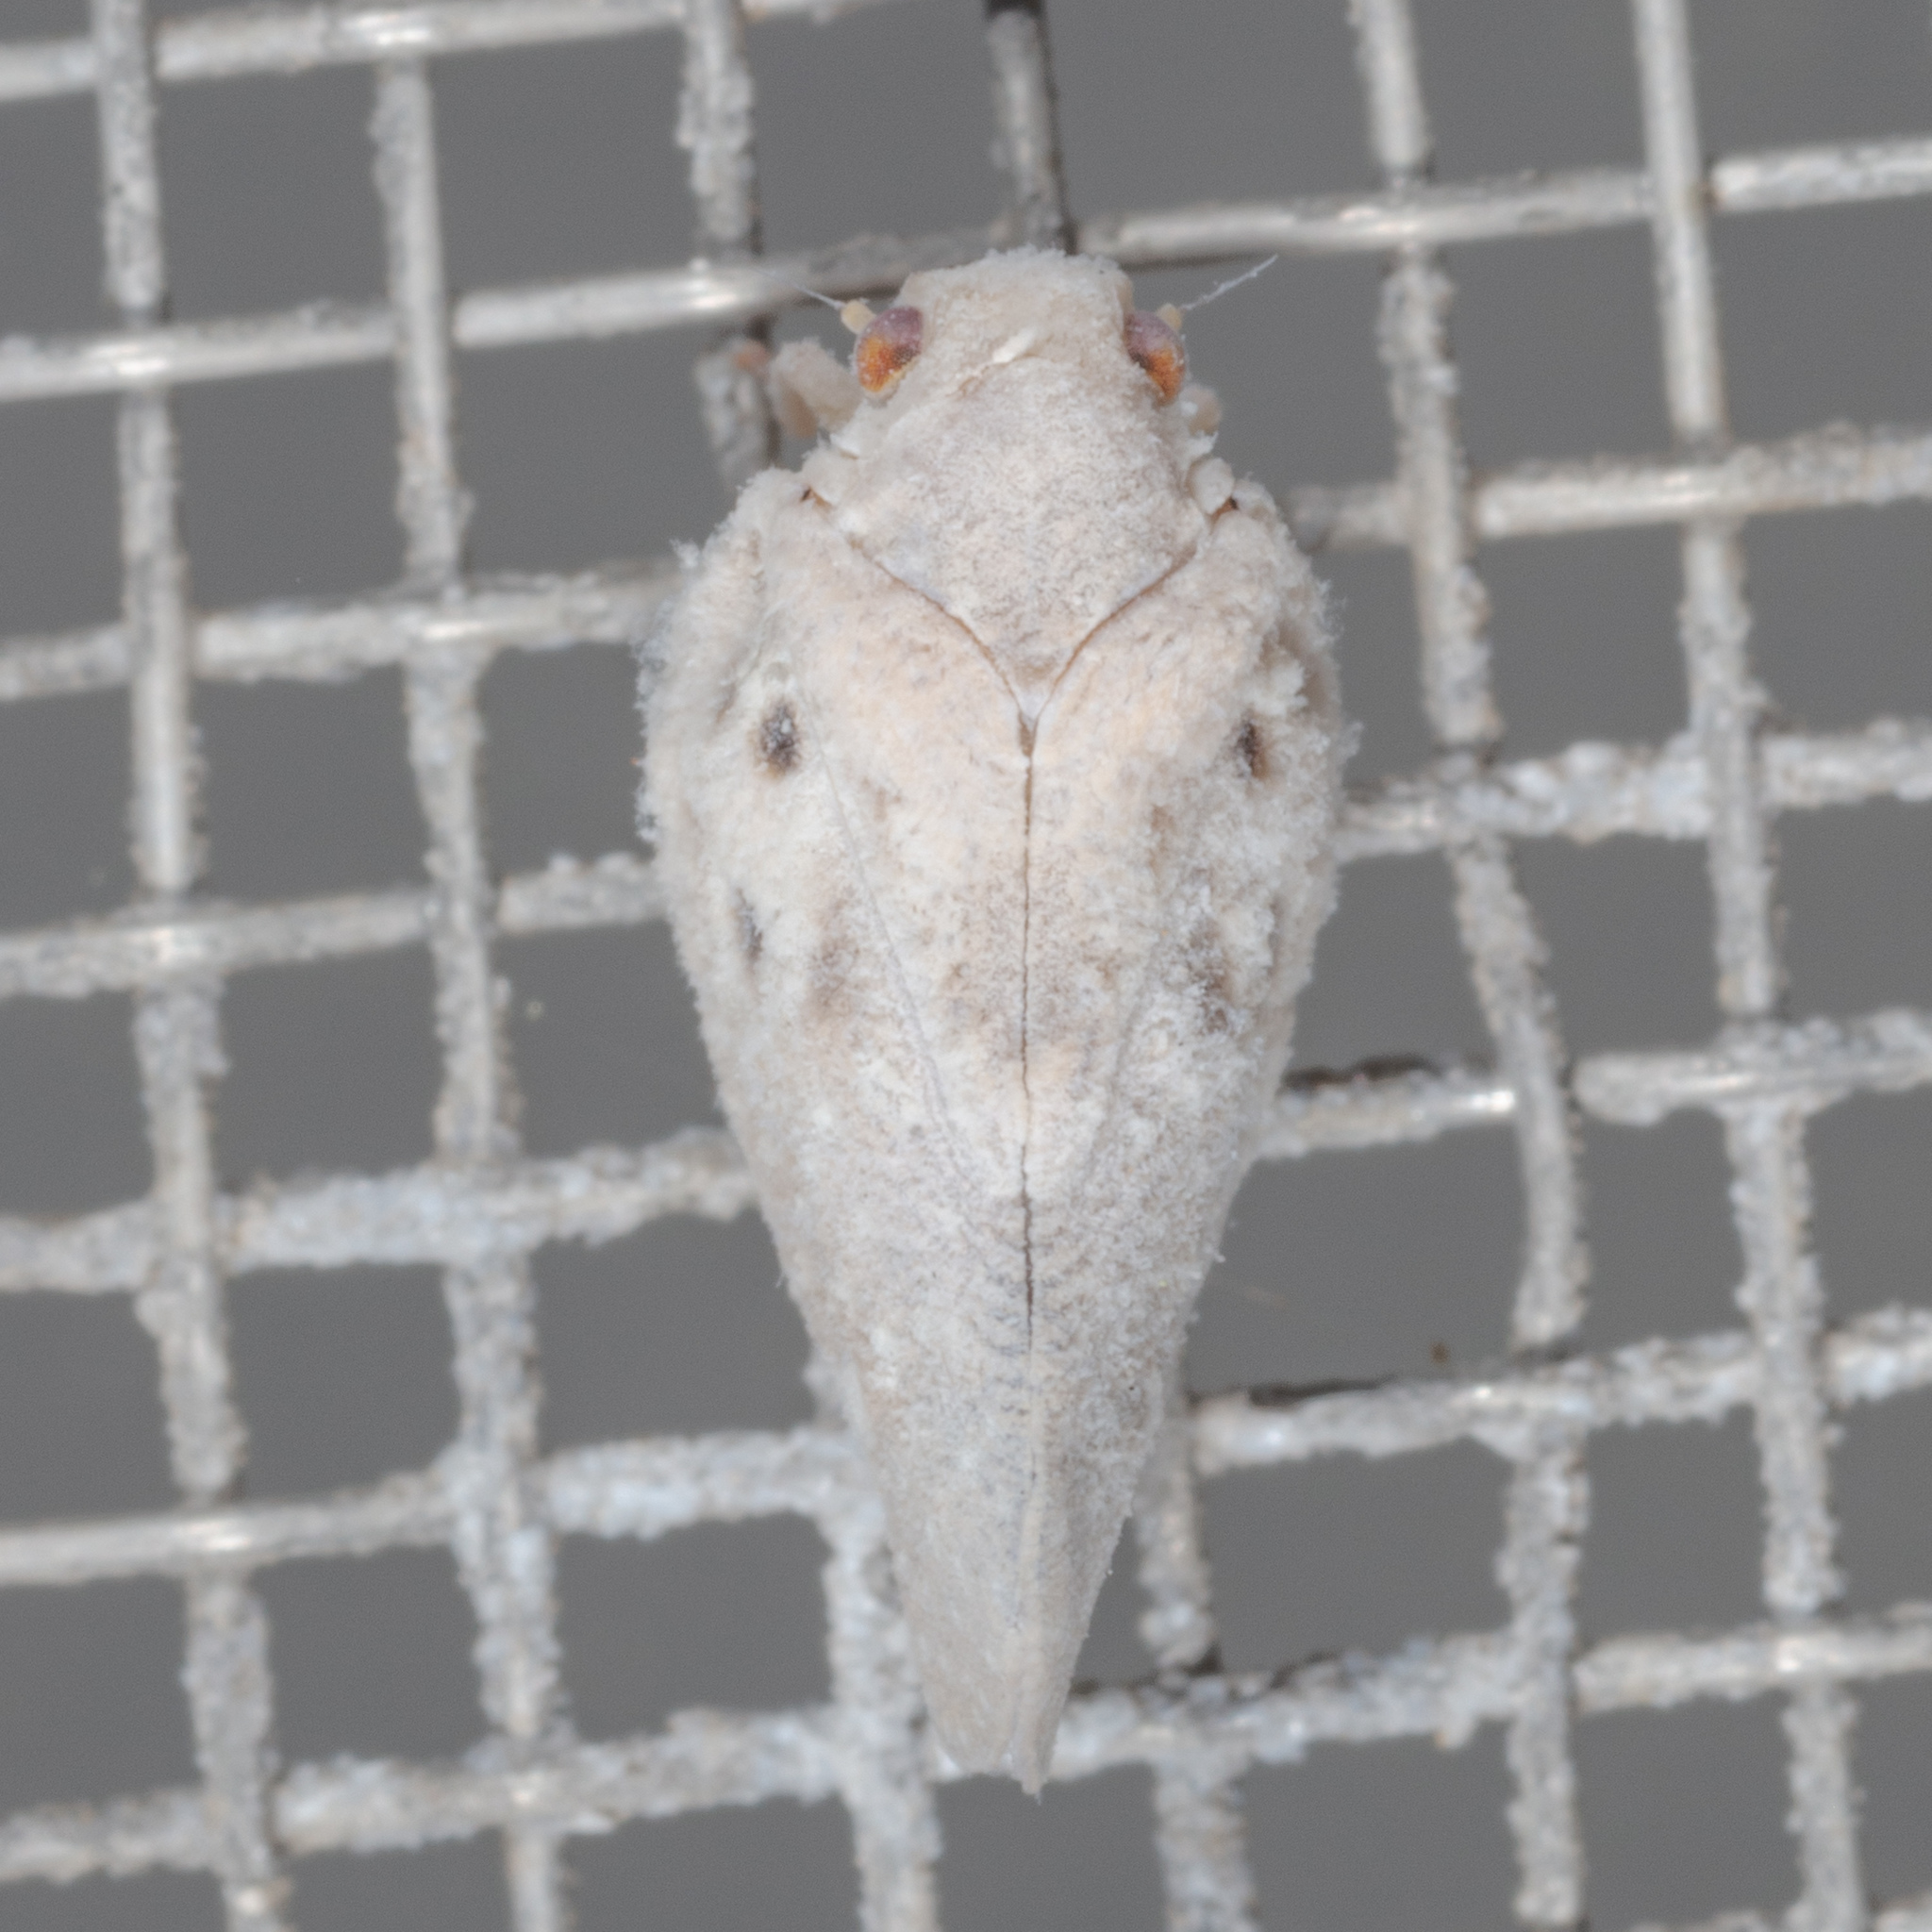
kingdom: Animalia
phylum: Arthropoda
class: Insecta
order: Hemiptera
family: Flatidae
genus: Metcalfa
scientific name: Metcalfa pruinosa
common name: Citrus flatid planthopper
